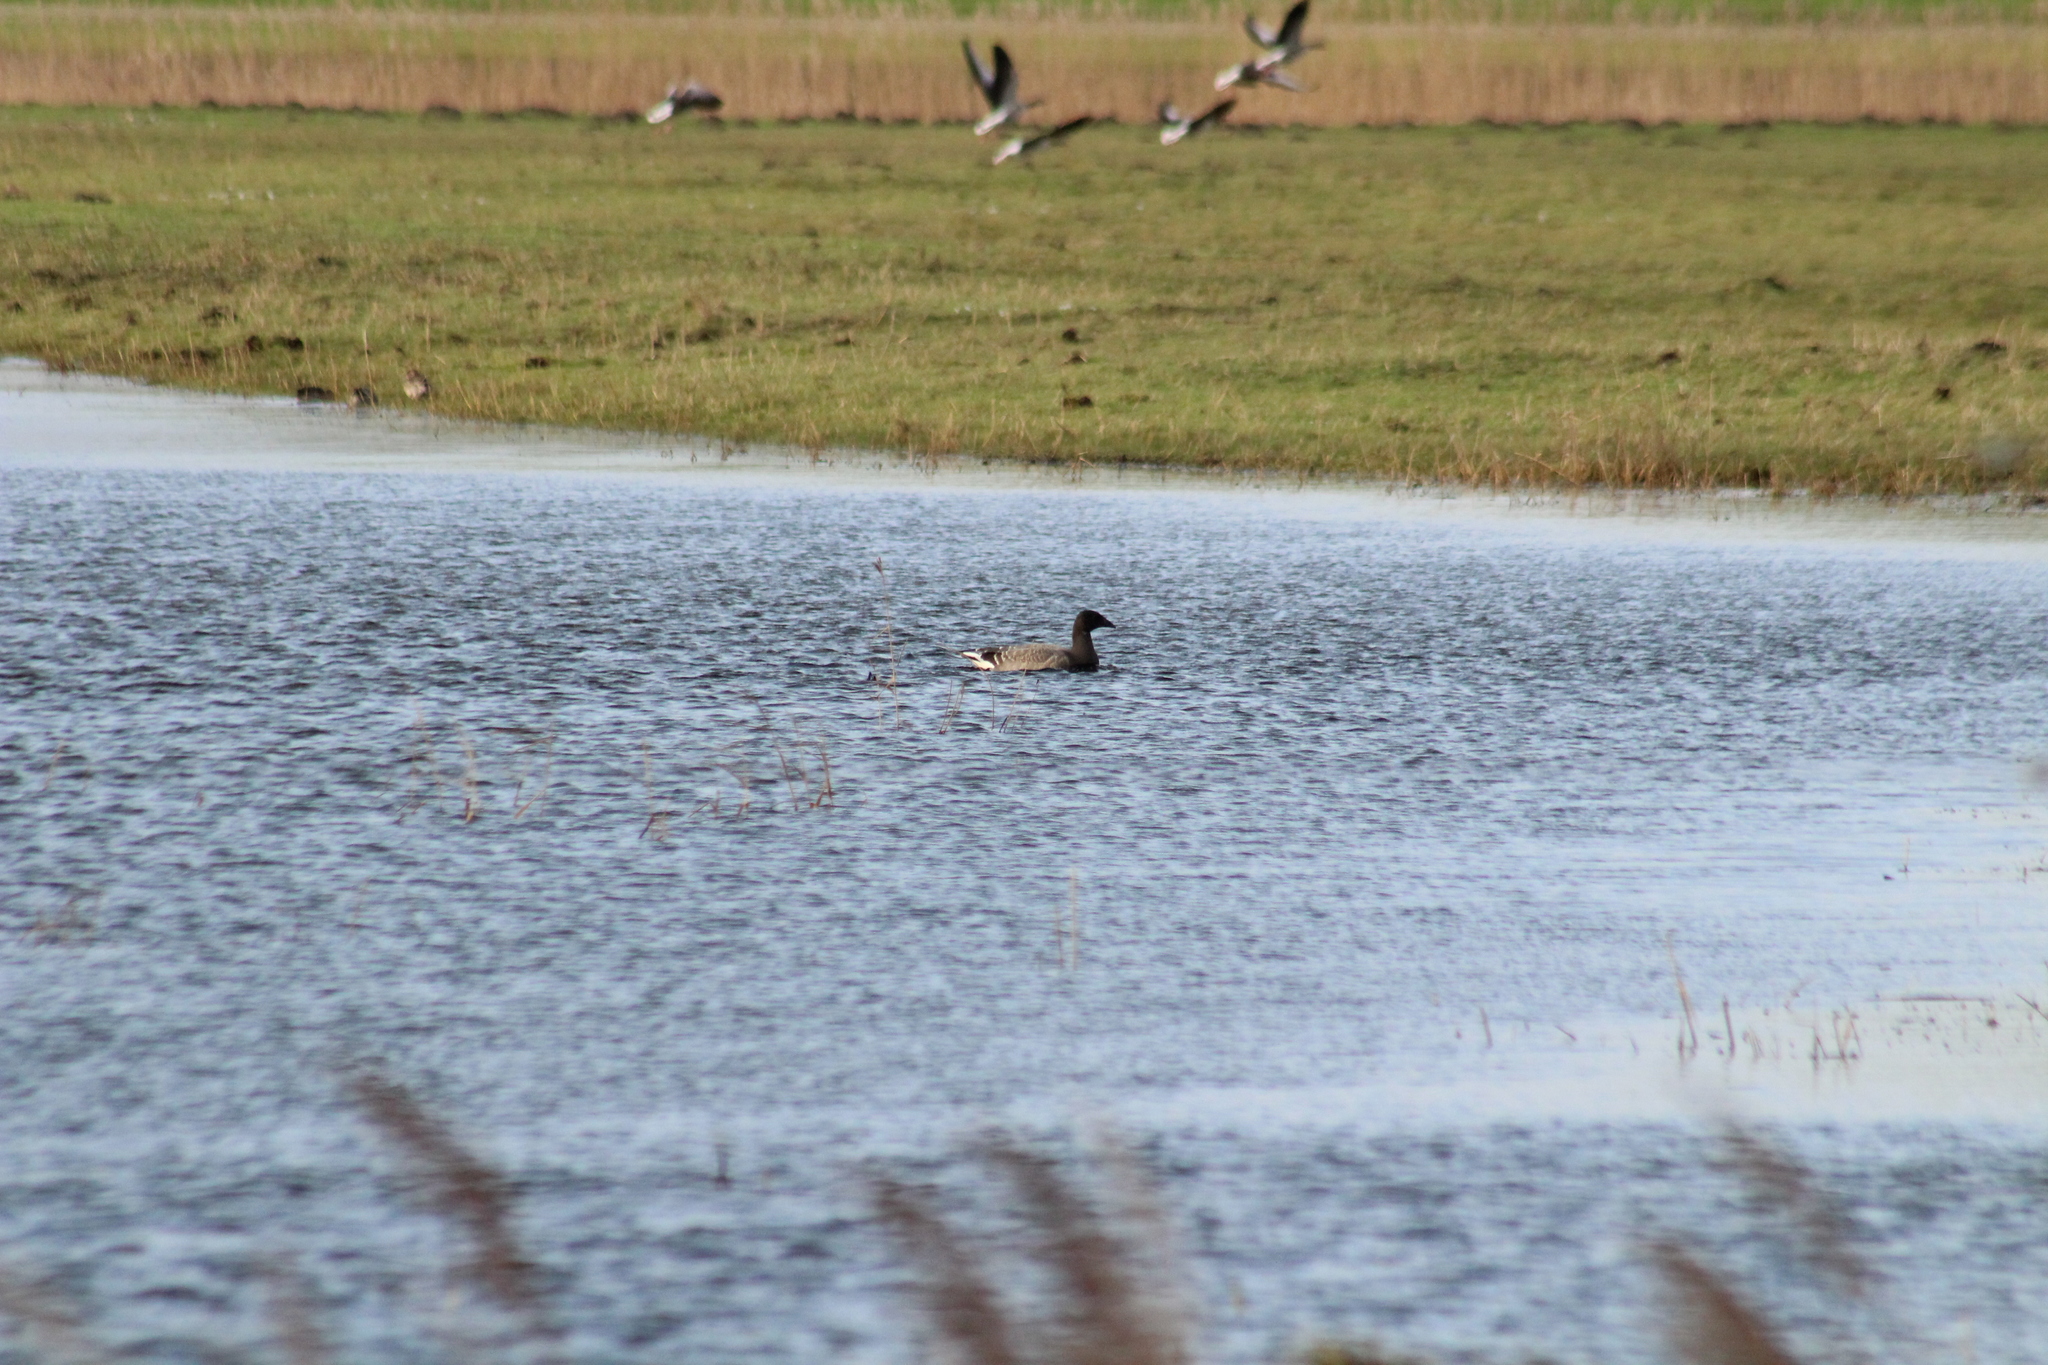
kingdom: Animalia
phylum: Chordata
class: Aves
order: Anseriformes
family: Anatidae
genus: Branta
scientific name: Branta bernicla
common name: Brant goose
